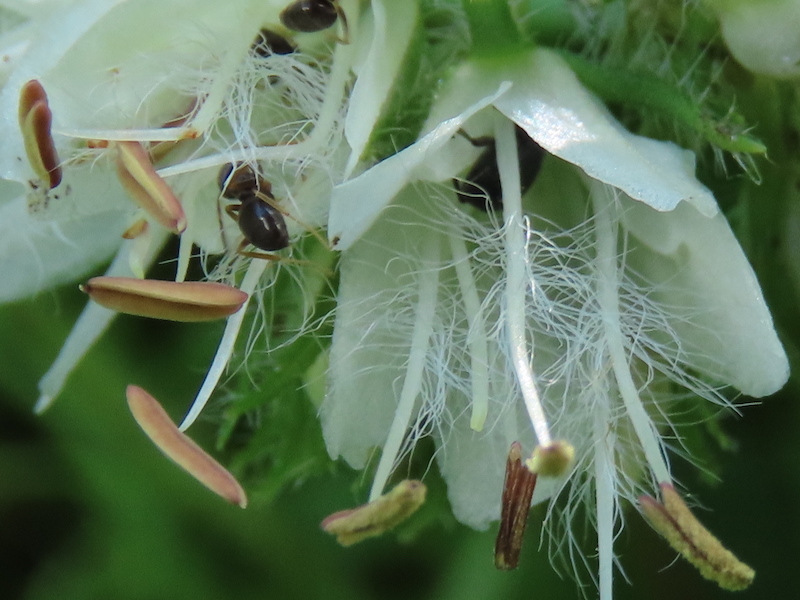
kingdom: Plantae
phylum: Tracheophyta
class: Magnoliopsida
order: Boraginales
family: Hydrophyllaceae
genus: Hydrophyllum
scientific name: Hydrophyllum virginianum
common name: Virginia waterleaf
